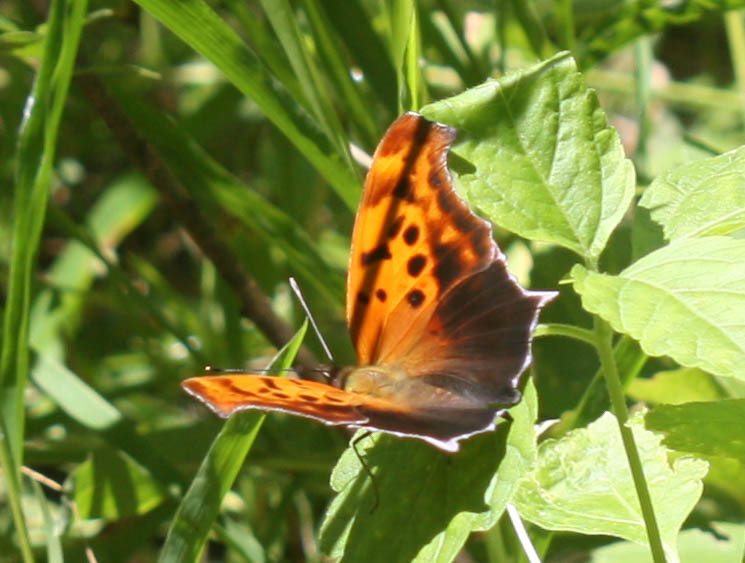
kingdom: Animalia
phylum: Arthropoda
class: Insecta
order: Lepidoptera
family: Nymphalidae
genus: Polygonia
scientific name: Polygonia interrogationis
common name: Question mark
